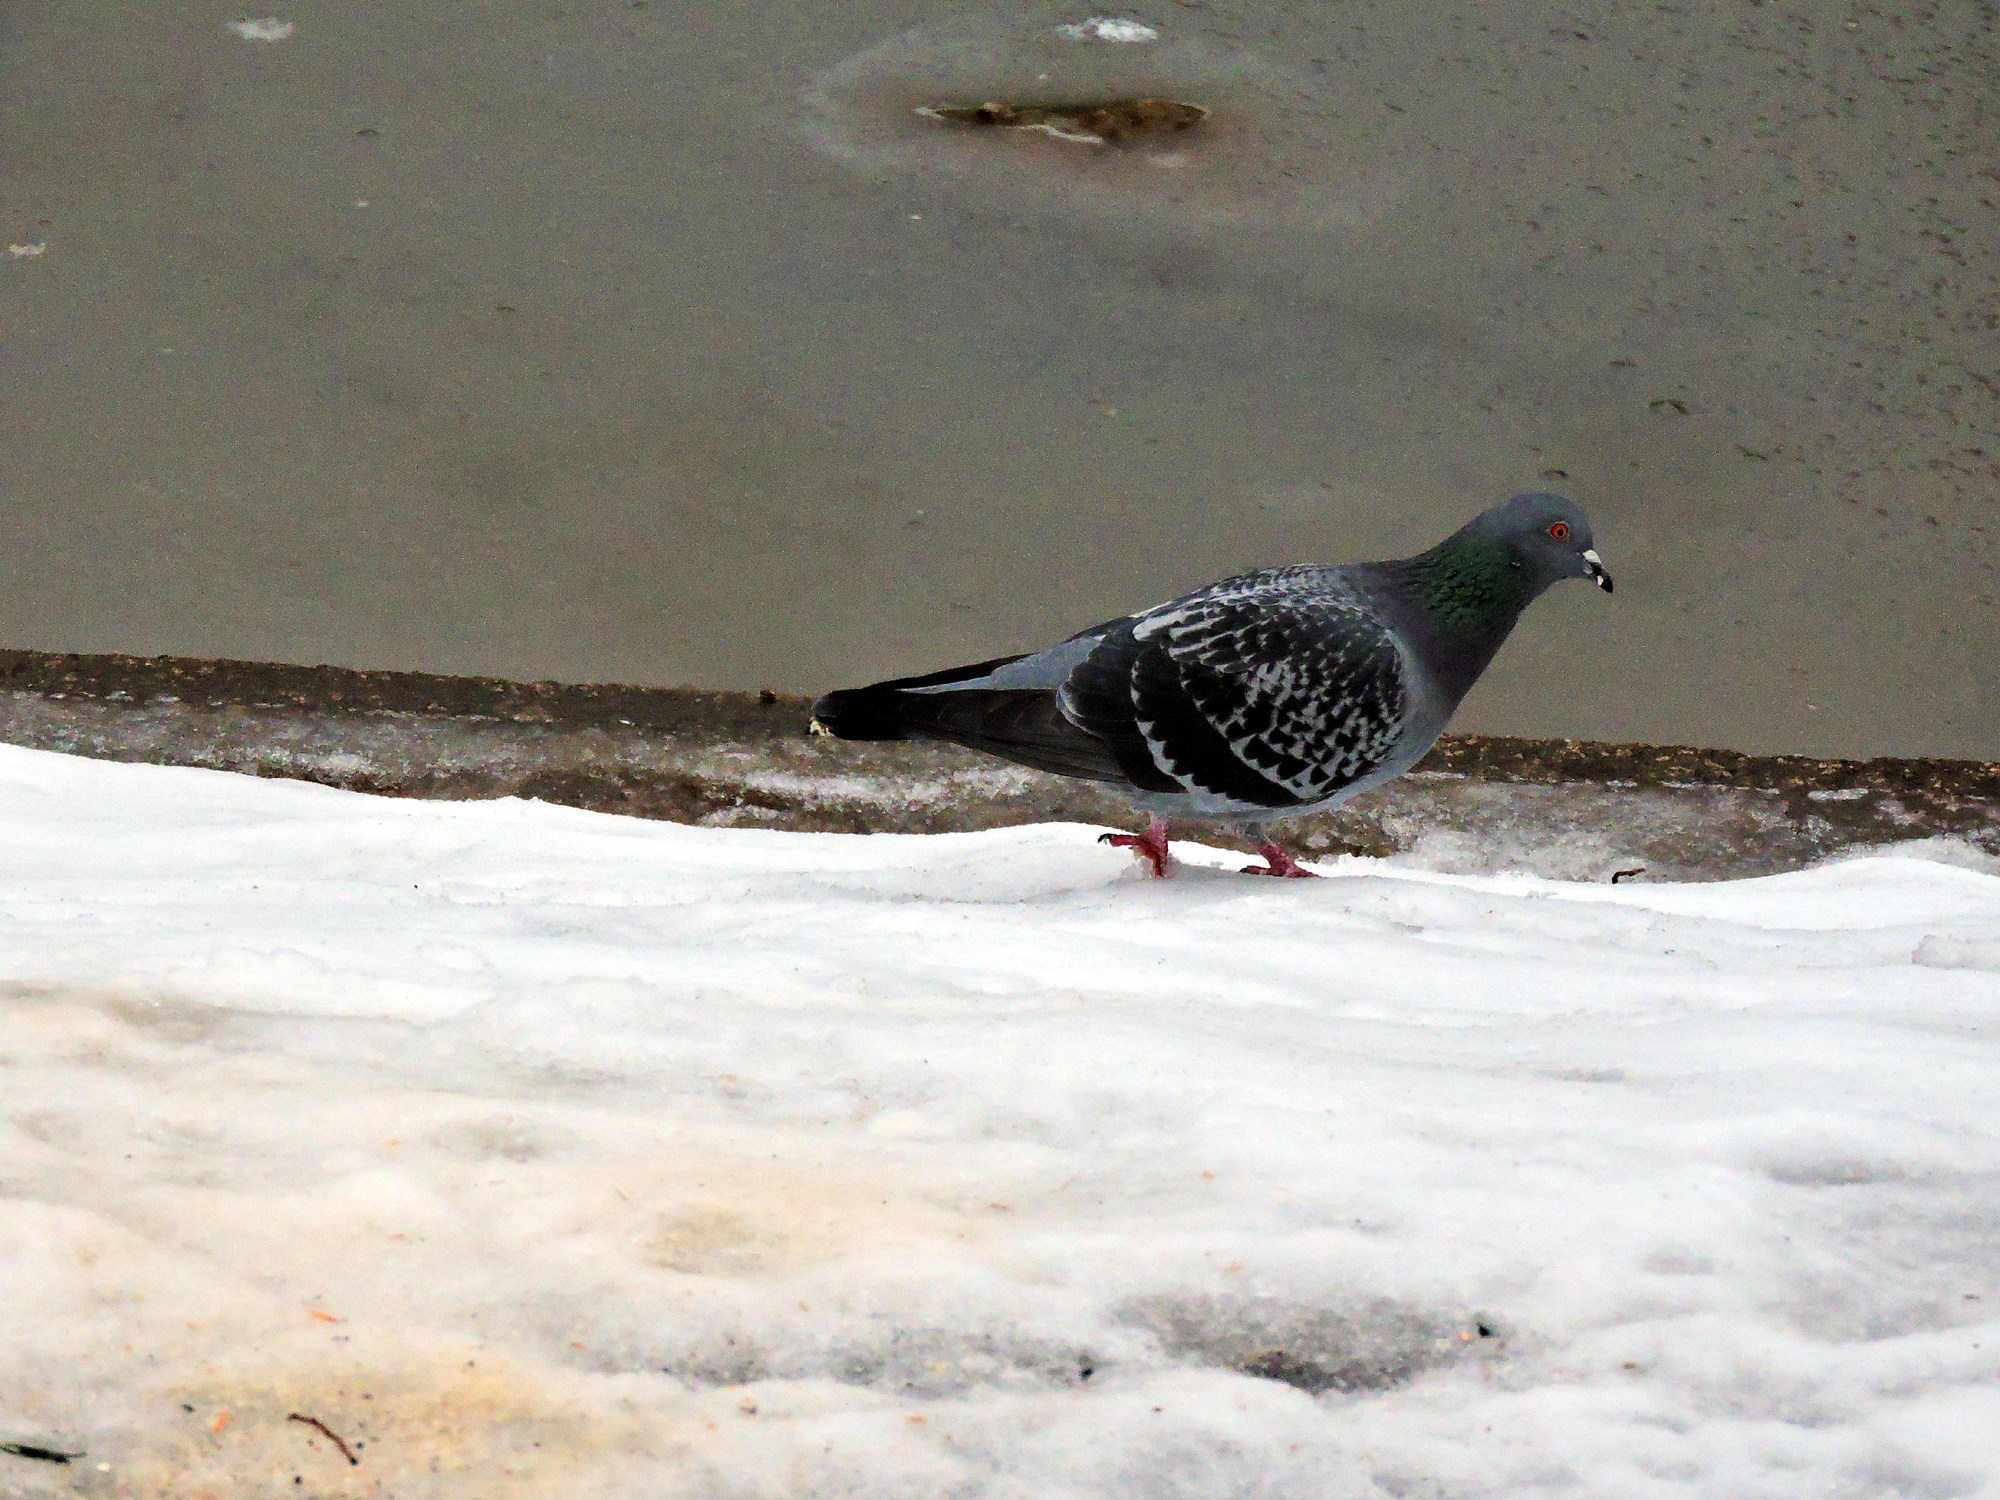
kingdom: Animalia
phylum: Chordata
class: Aves
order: Columbiformes
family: Columbidae
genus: Columba
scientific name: Columba livia
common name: Rock pigeon
